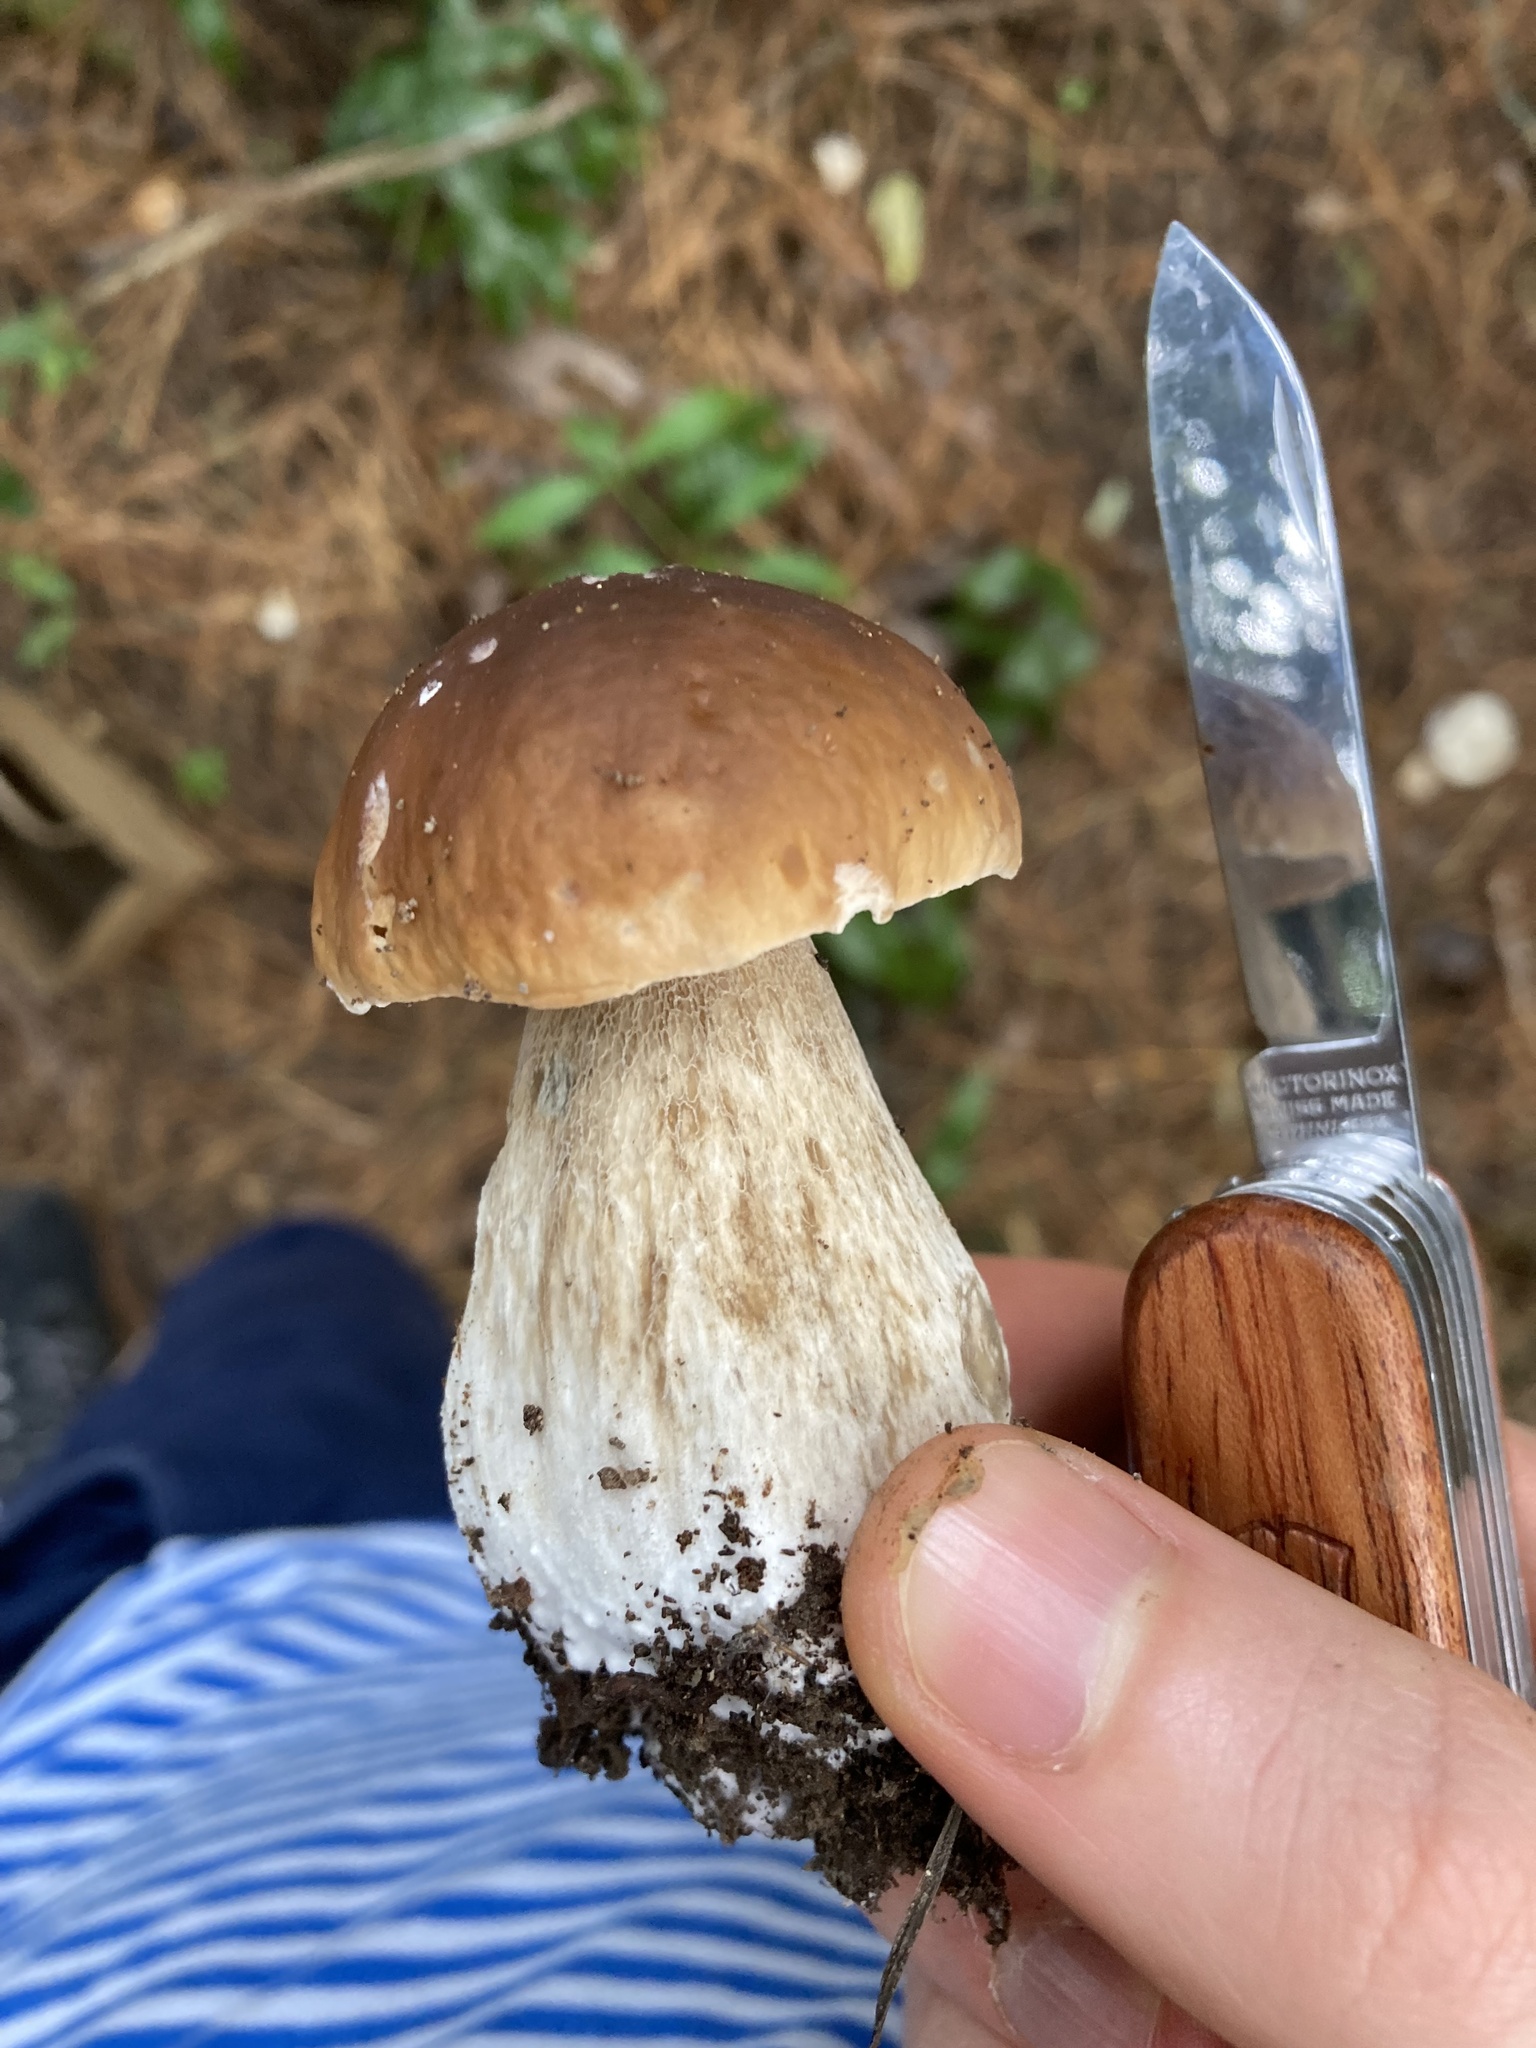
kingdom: Fungi
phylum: Basidiomycota
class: Agaricomycetes
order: Boletales
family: Boletaceae
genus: Boletus
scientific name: Boletus edulis
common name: Cep
